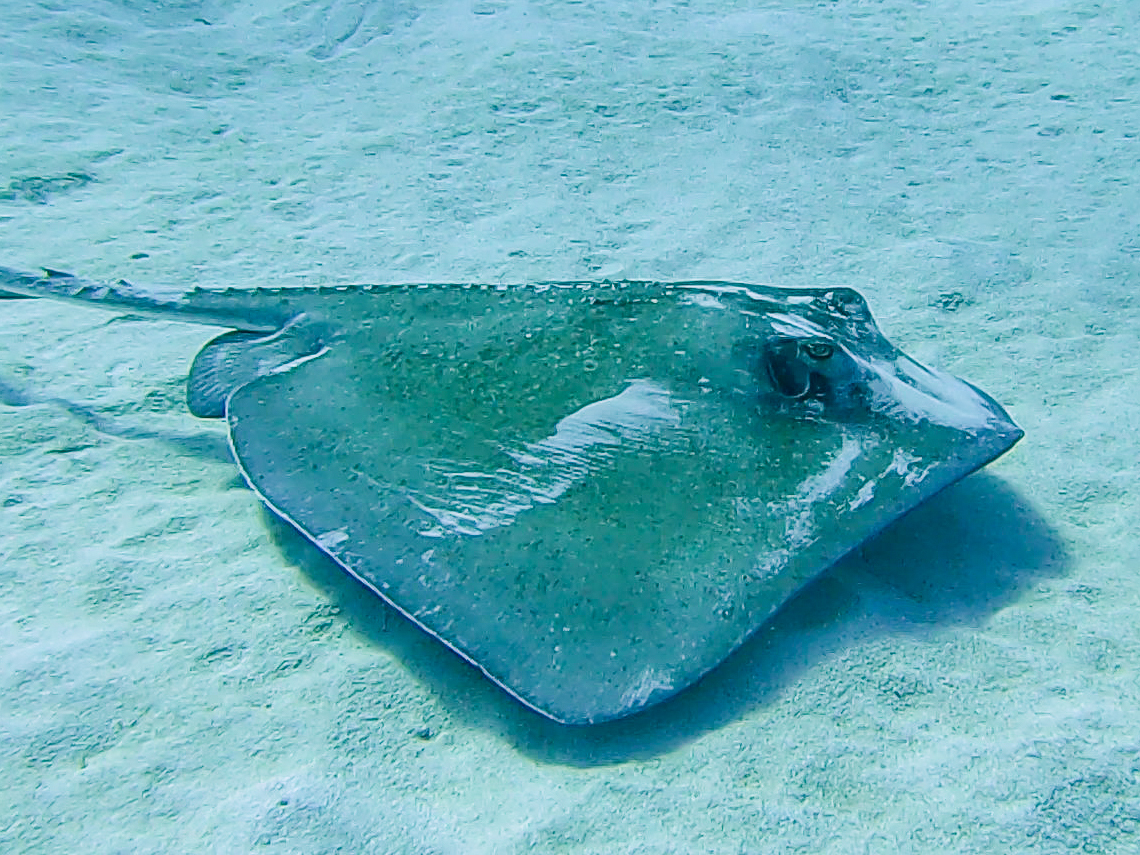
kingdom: Animalia
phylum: Chordata
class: Elasmobranchii
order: Myliobatiformes
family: Dasyatidae
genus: Hypanus
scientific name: Hypanus americanus
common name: Southern stingray
